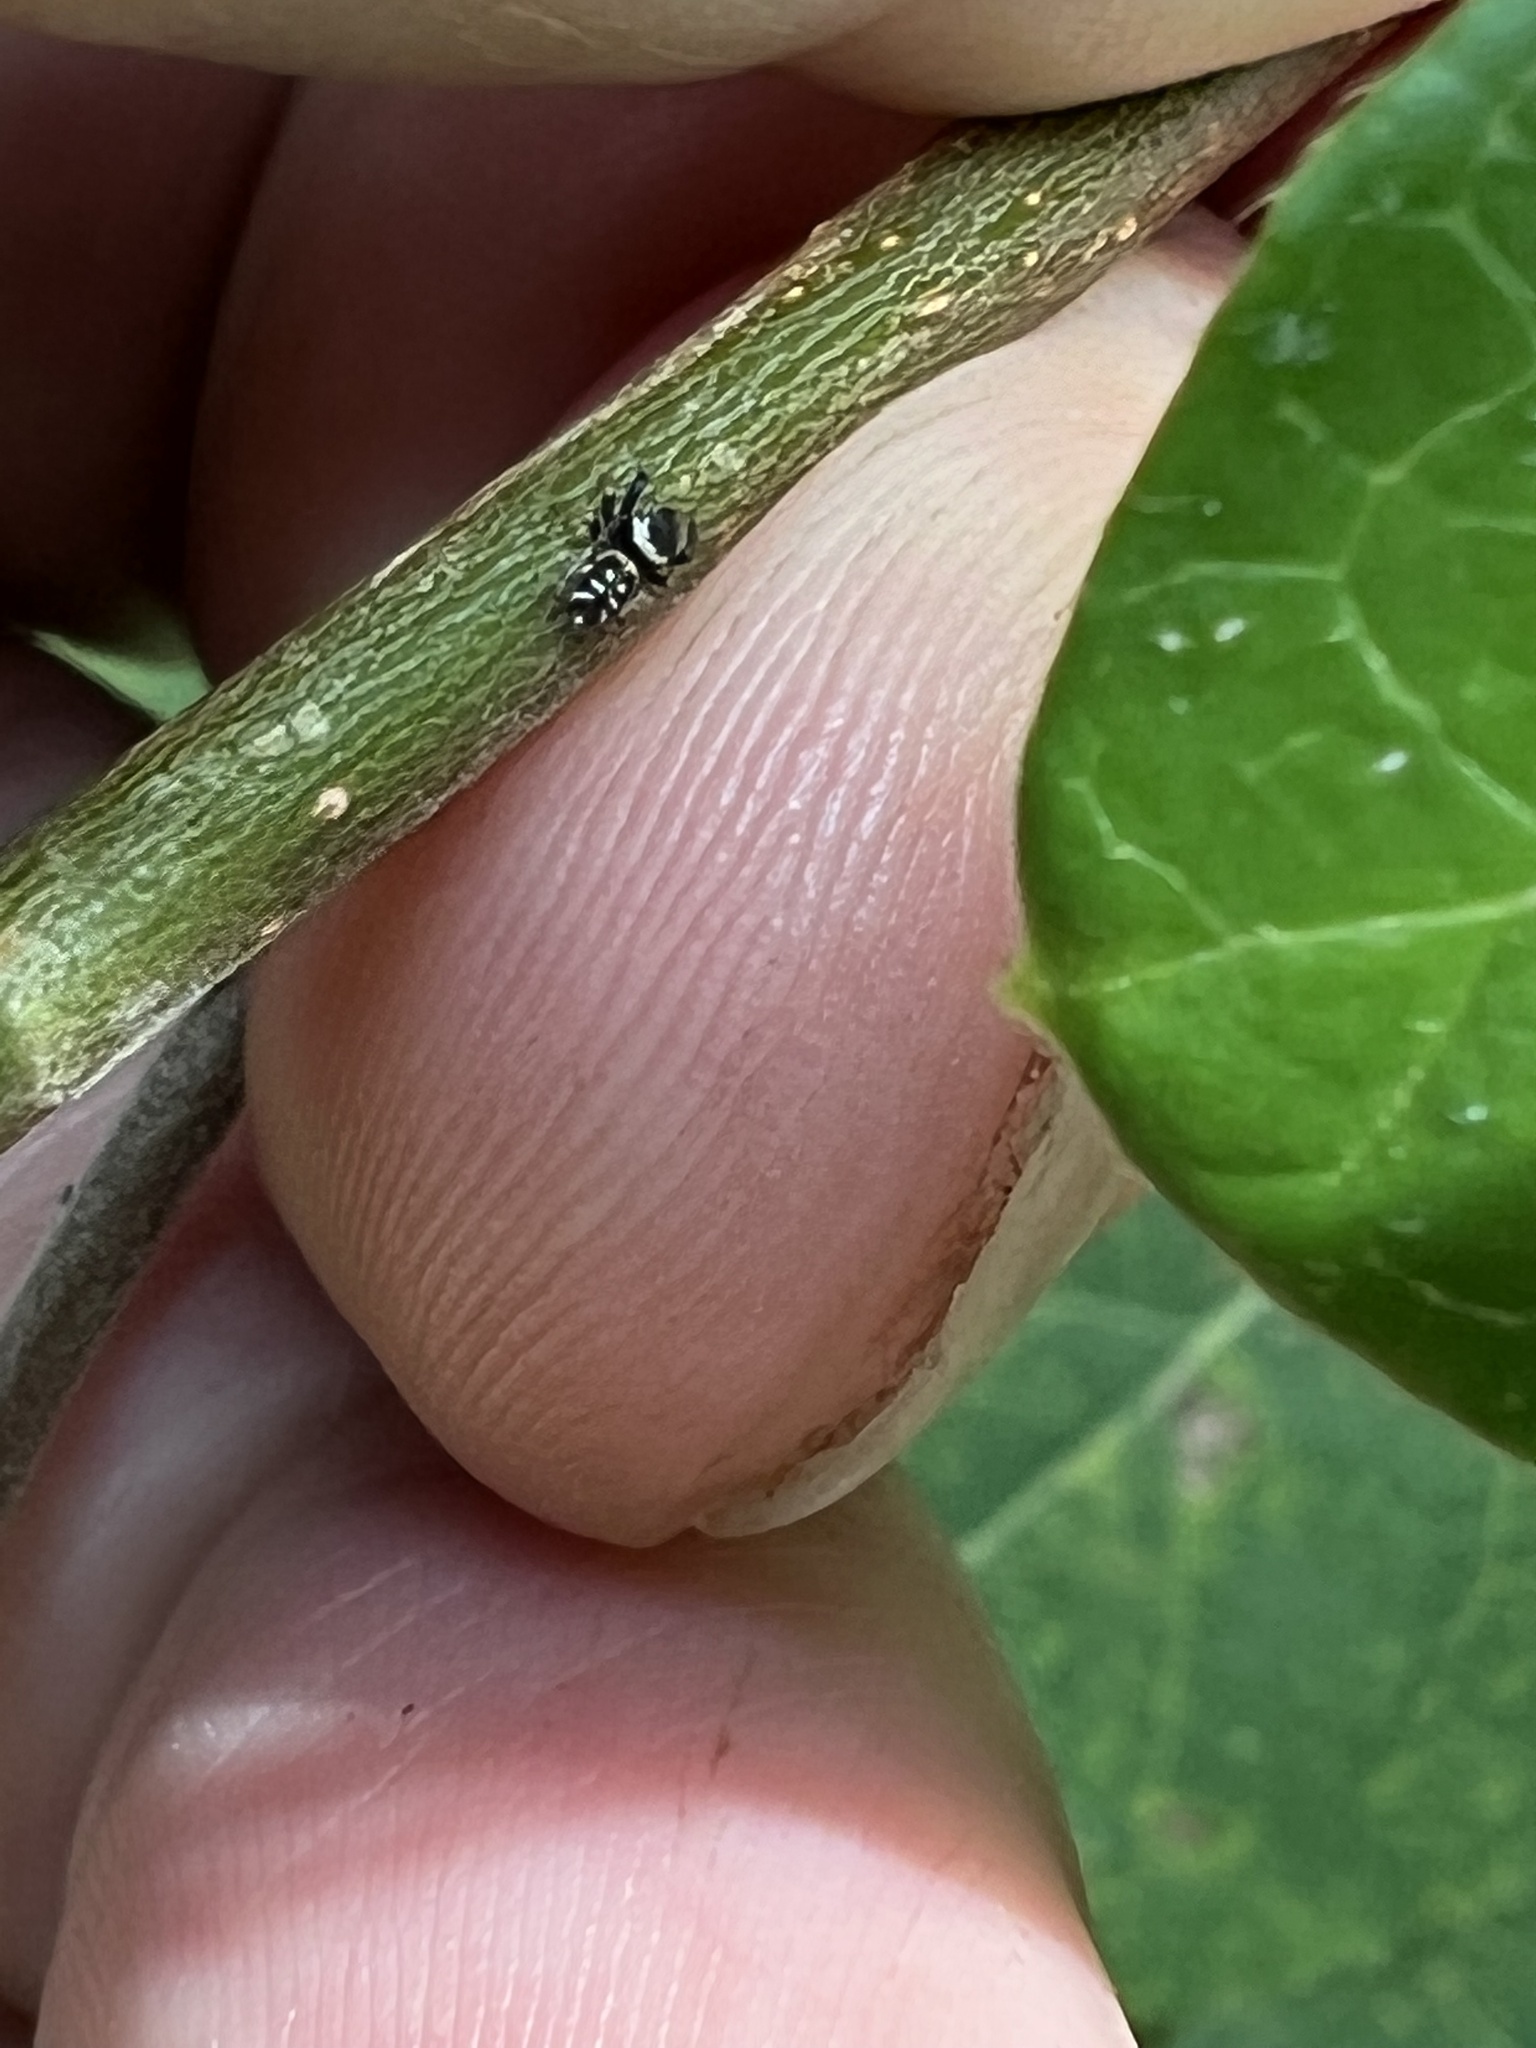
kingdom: Animalia
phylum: Arthropoda
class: Arachnida
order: Araneae
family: Salticidae
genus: Paraphidippus
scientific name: Paraphidippus aurantius
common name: Jumping spiders
